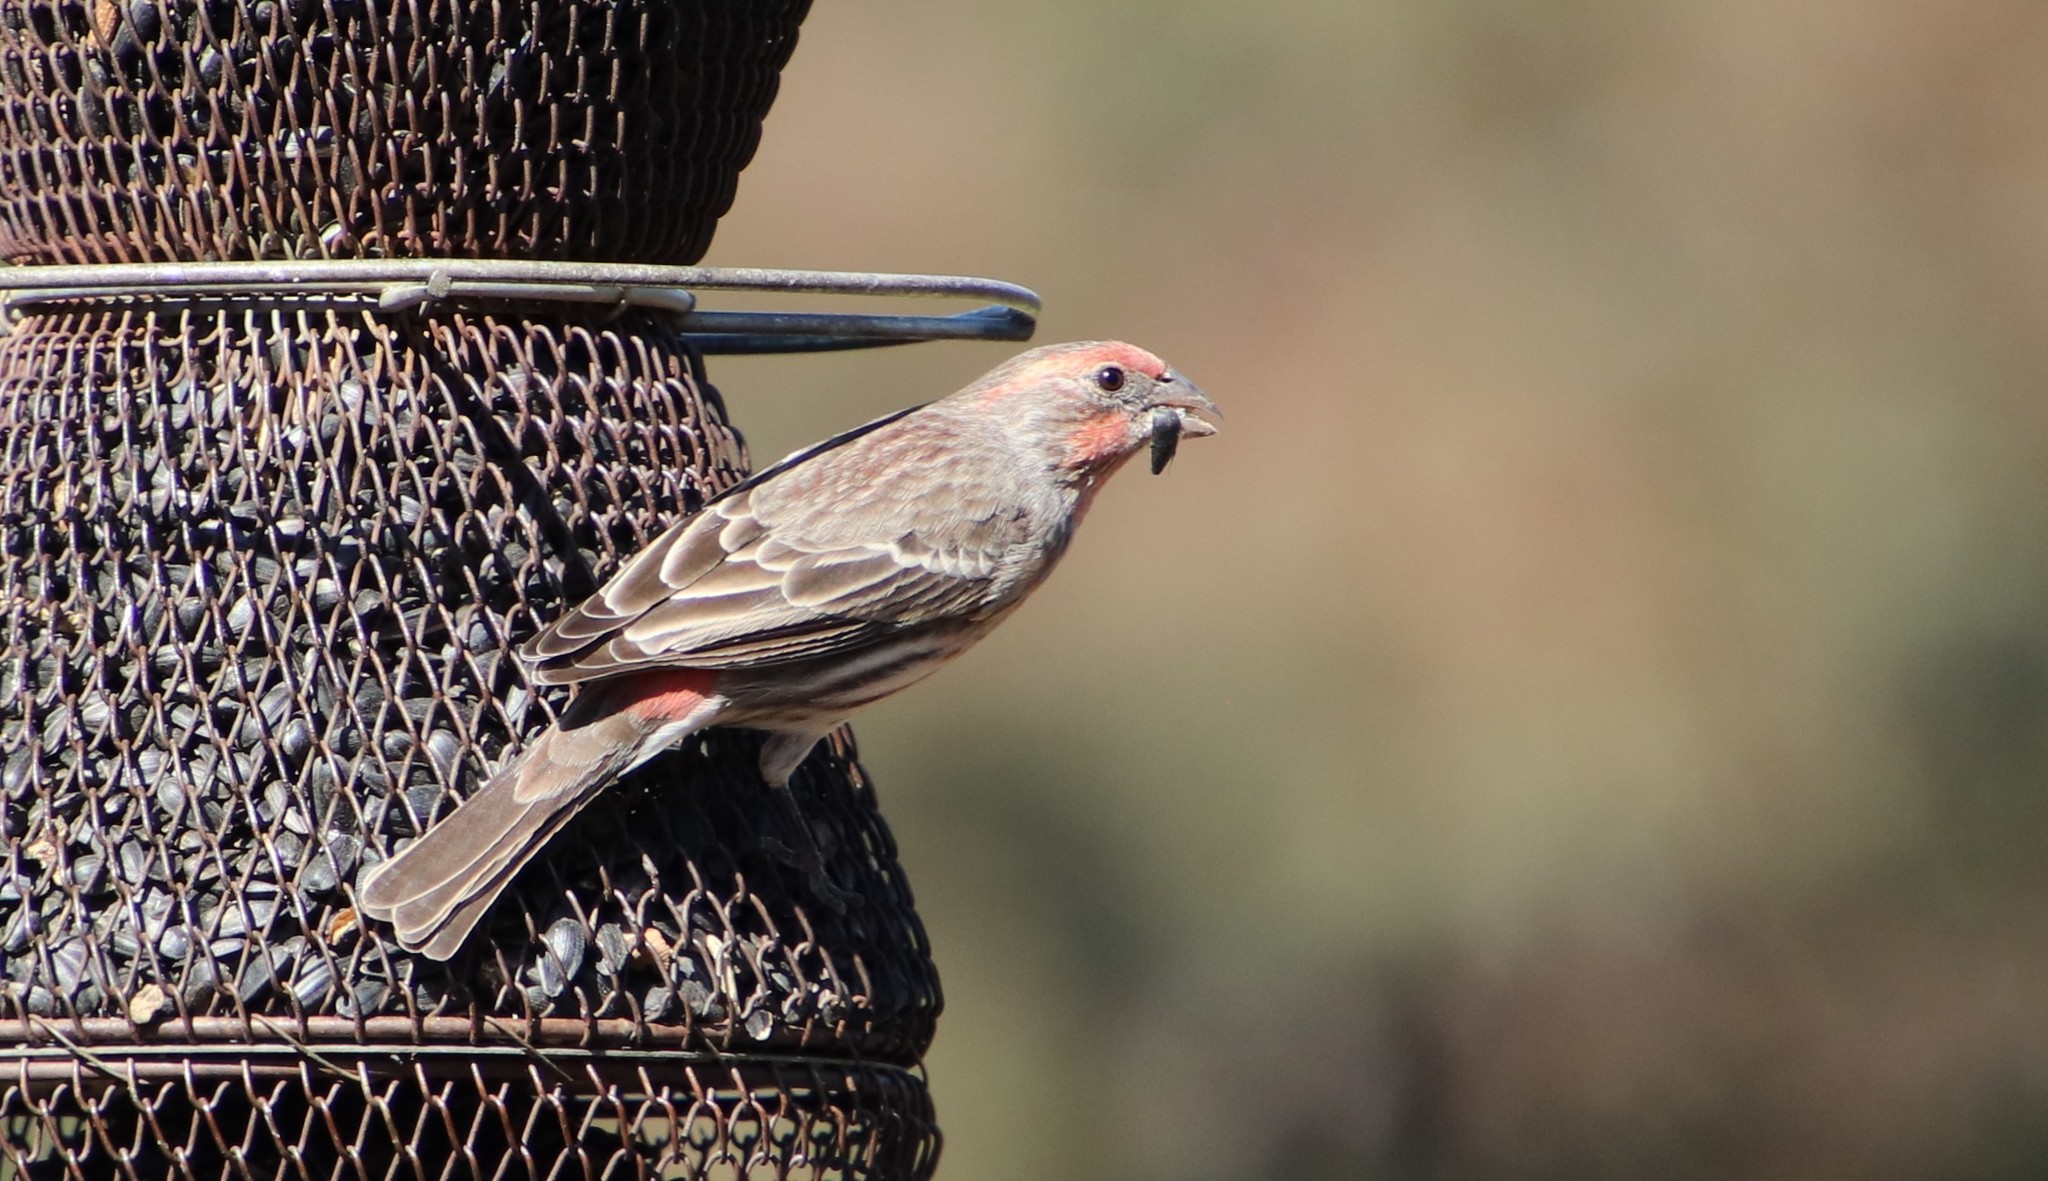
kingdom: Animalia
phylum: Chordata
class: Aves
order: Passeriformes
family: Fringillidae
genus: Haemorhous
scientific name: Haemorhous mexicanus
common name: House finch
